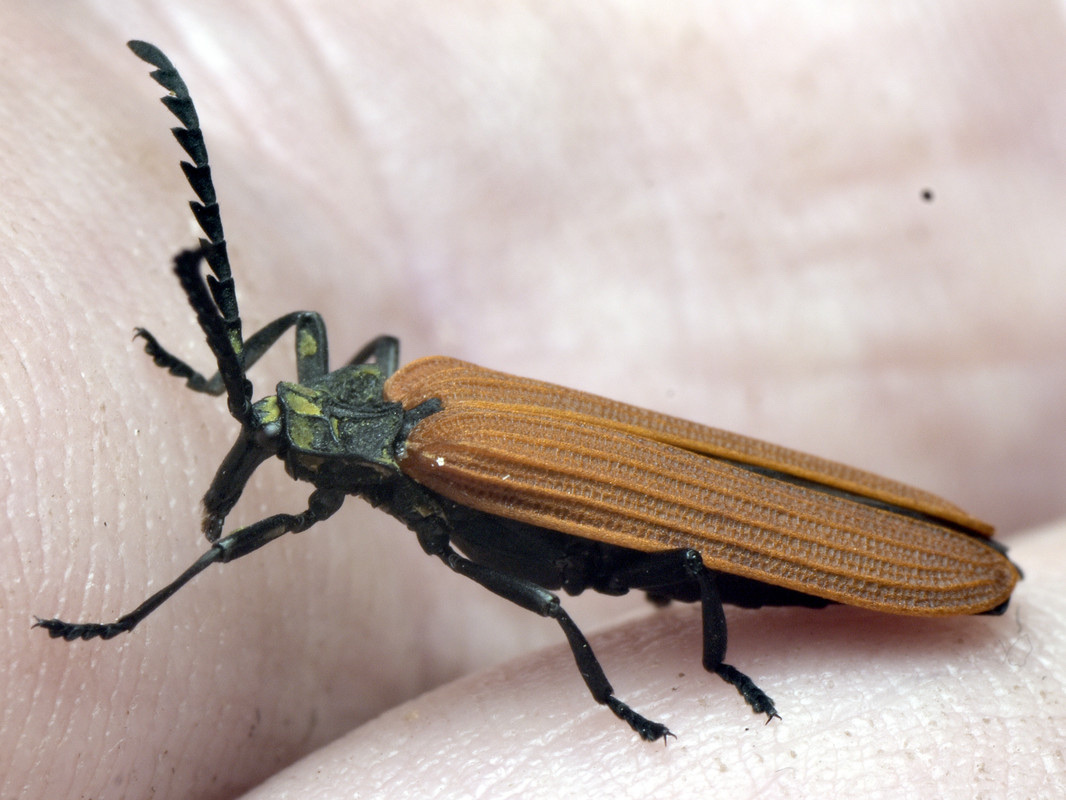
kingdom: Animalia
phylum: Arthropoda
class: Insecta
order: Coleoptera
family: Lycidae
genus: Porrostoma
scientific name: Porrostoma rhipidium
